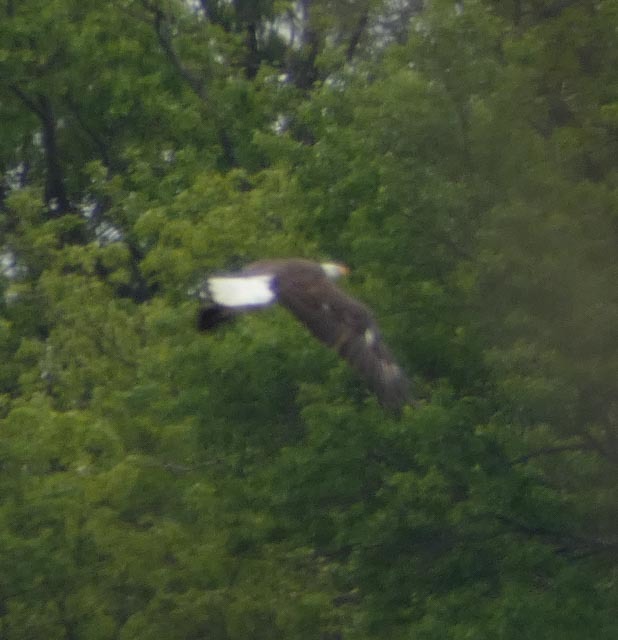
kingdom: Animalia
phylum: Chordata
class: Aves
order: Accipitriformes
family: Accipitridae
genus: Haliaeetus
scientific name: Haliaeetus leucocephalus
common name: Bald eagle
